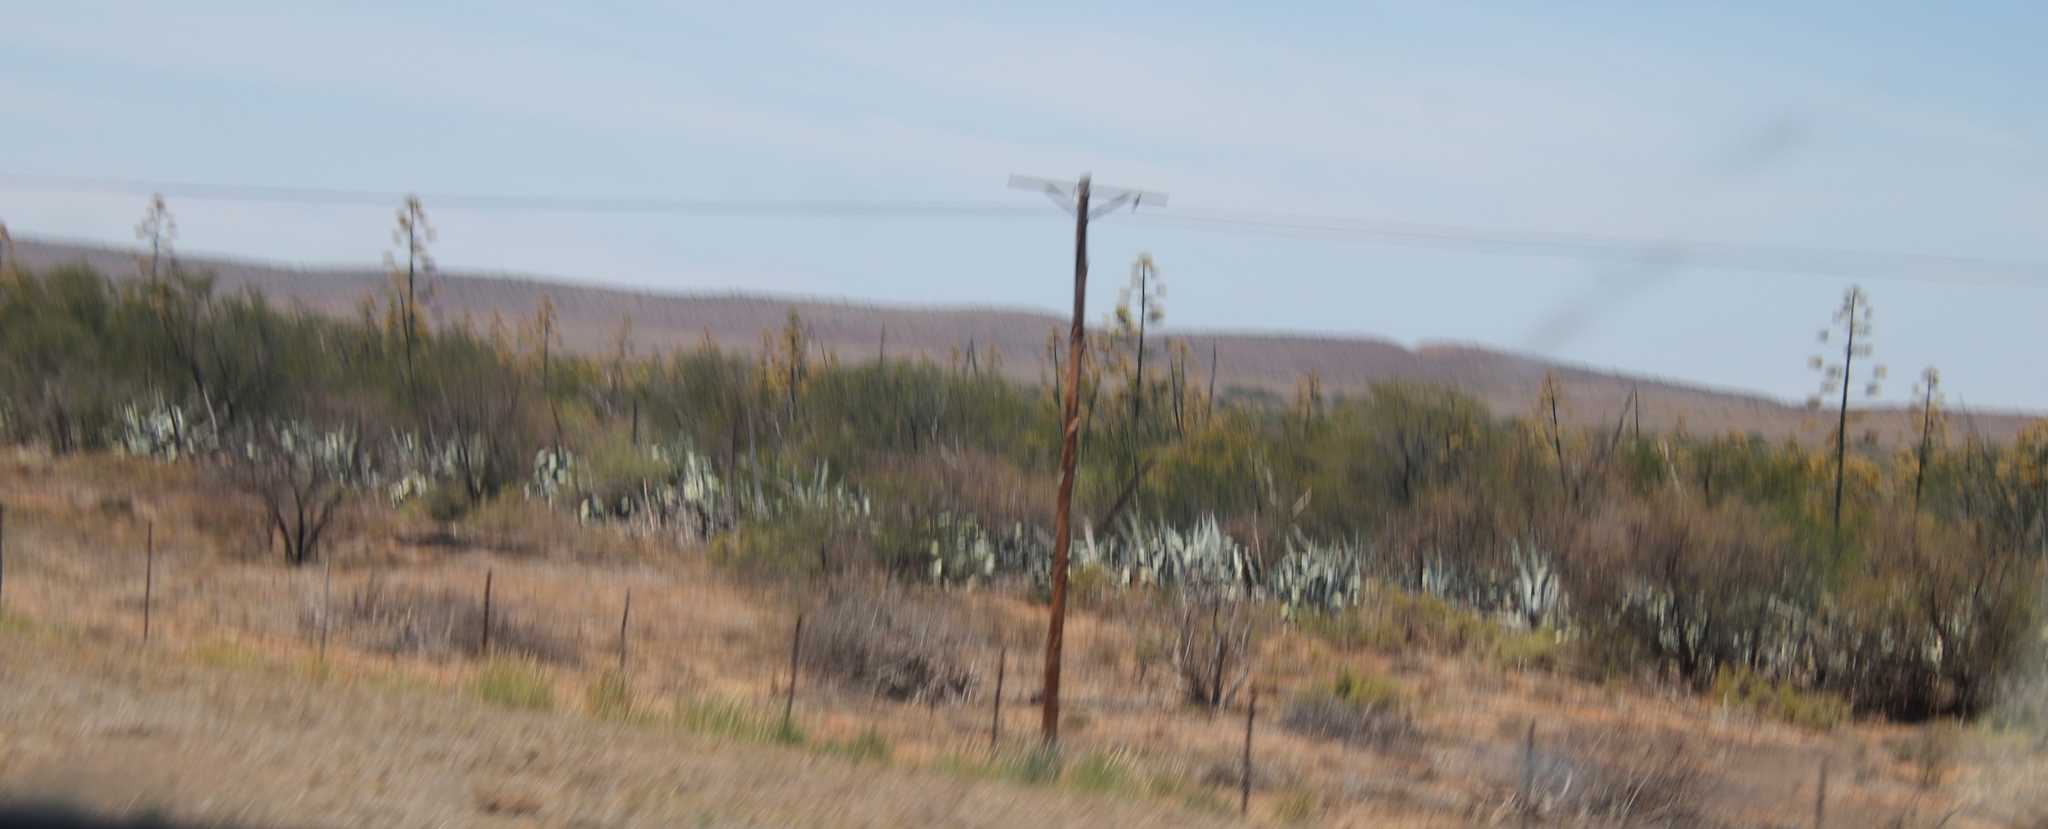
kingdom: Plantae
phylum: Tracheophyta
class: Liliopsida
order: Asparagales
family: Asparagaceae
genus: Agave
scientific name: Agave americana
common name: Centuryplant
